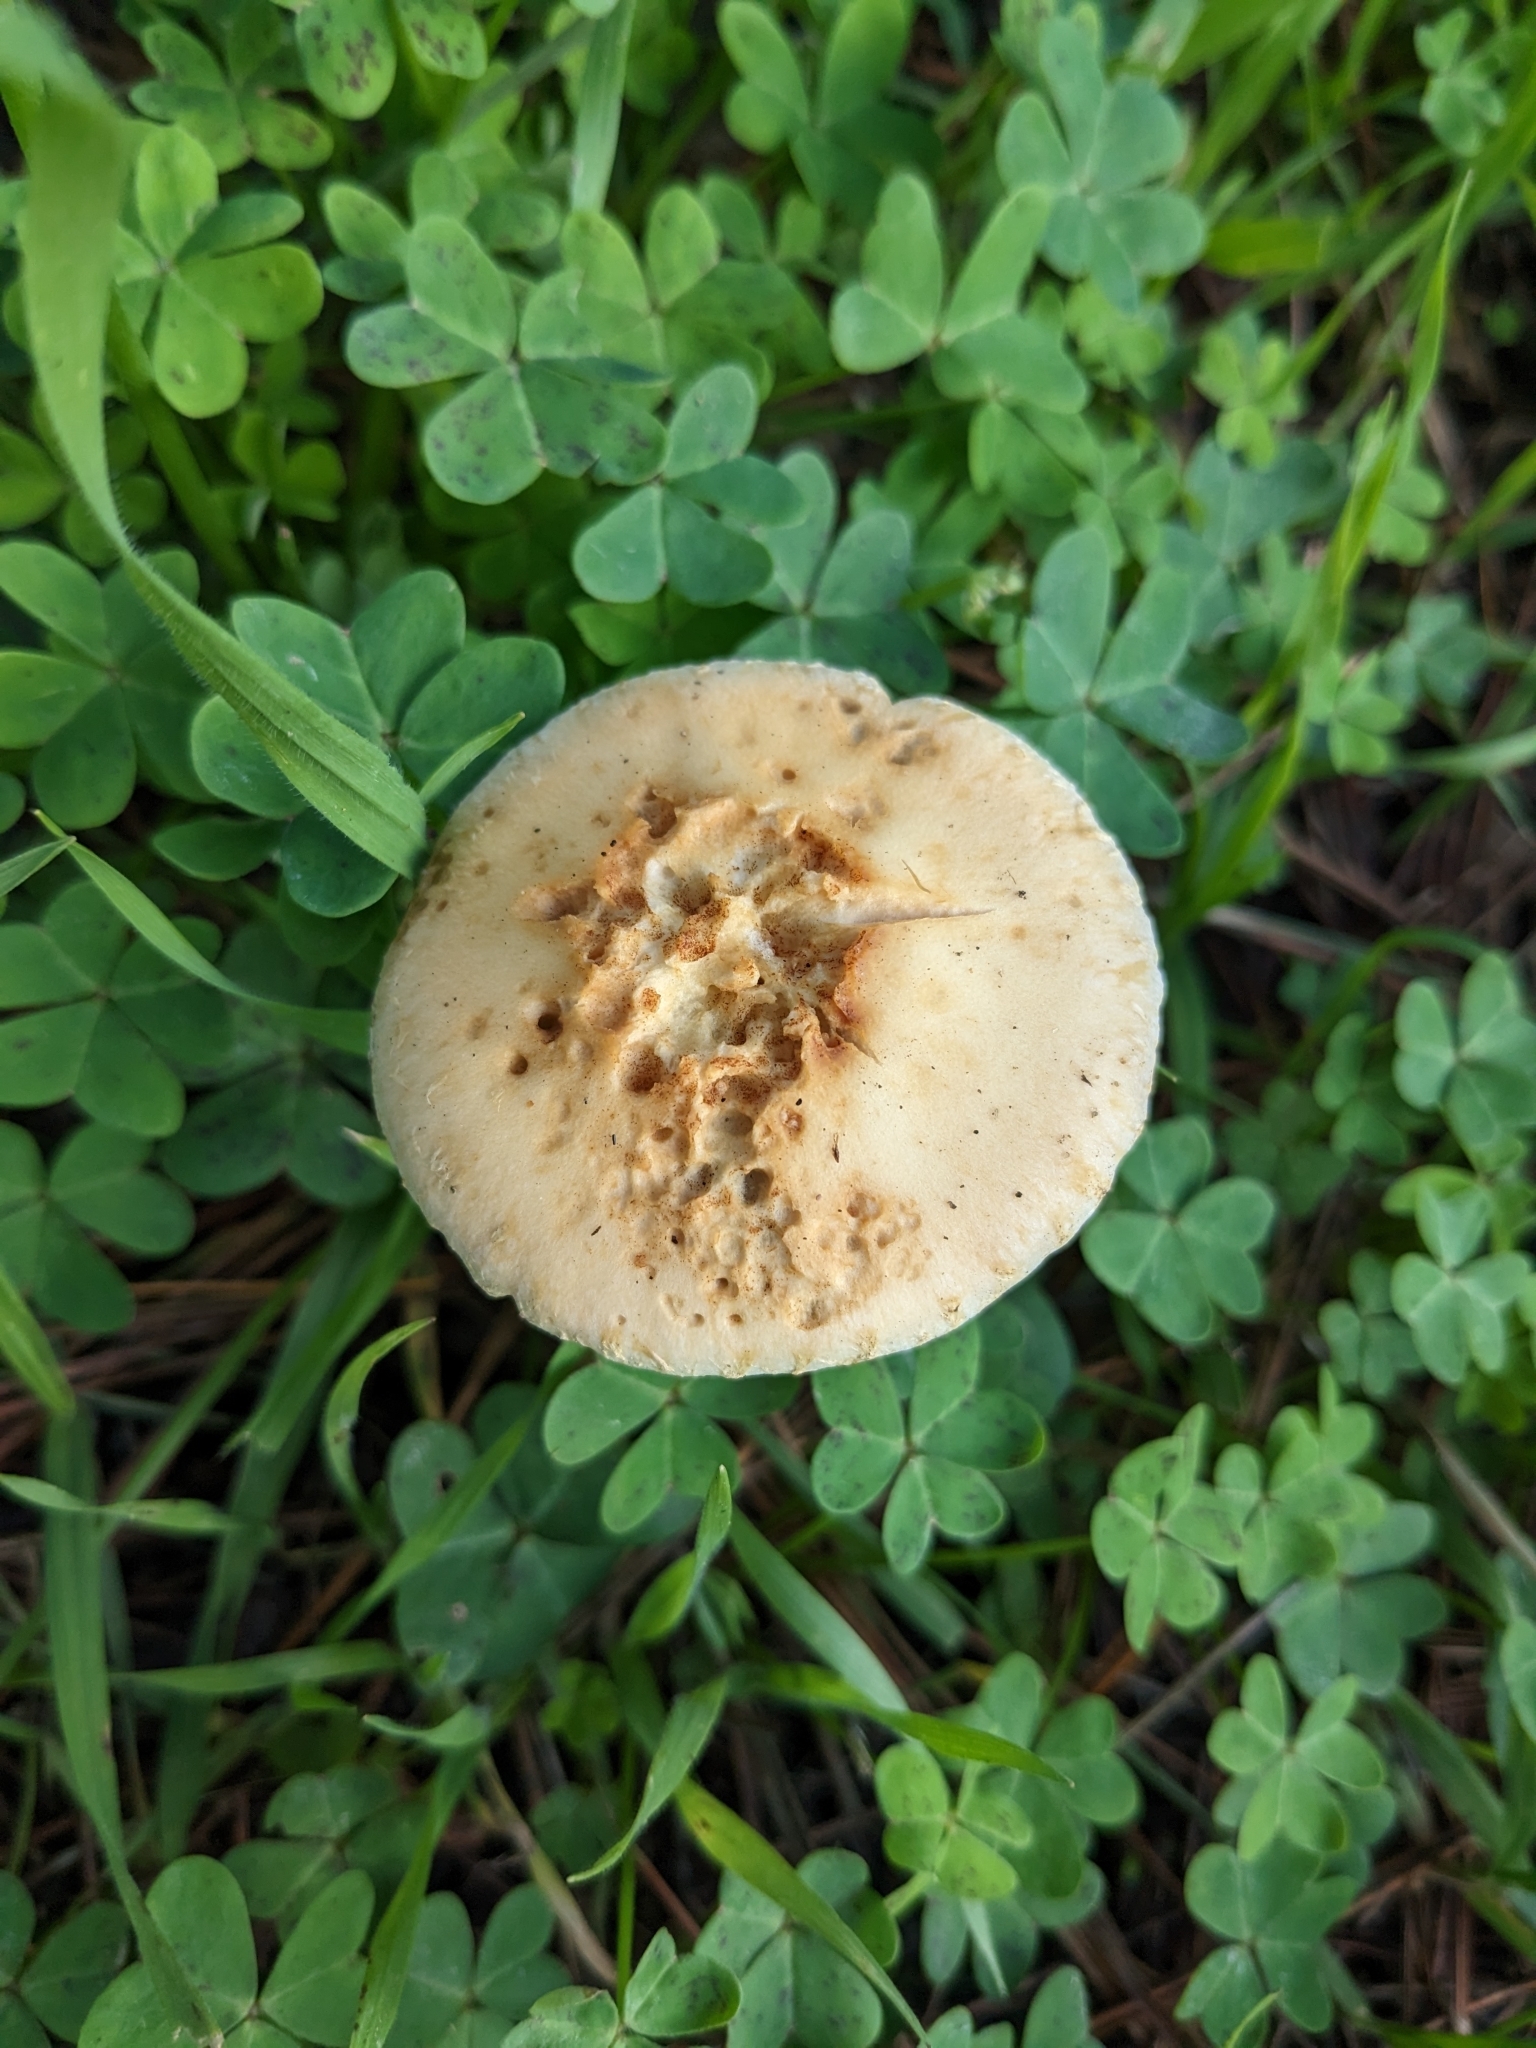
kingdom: Fungi
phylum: Basidiomycota
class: Agaricomycetes
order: Agaricales
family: Strophariaceae
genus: Leratiomyces
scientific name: Leratiomyces percevalii
